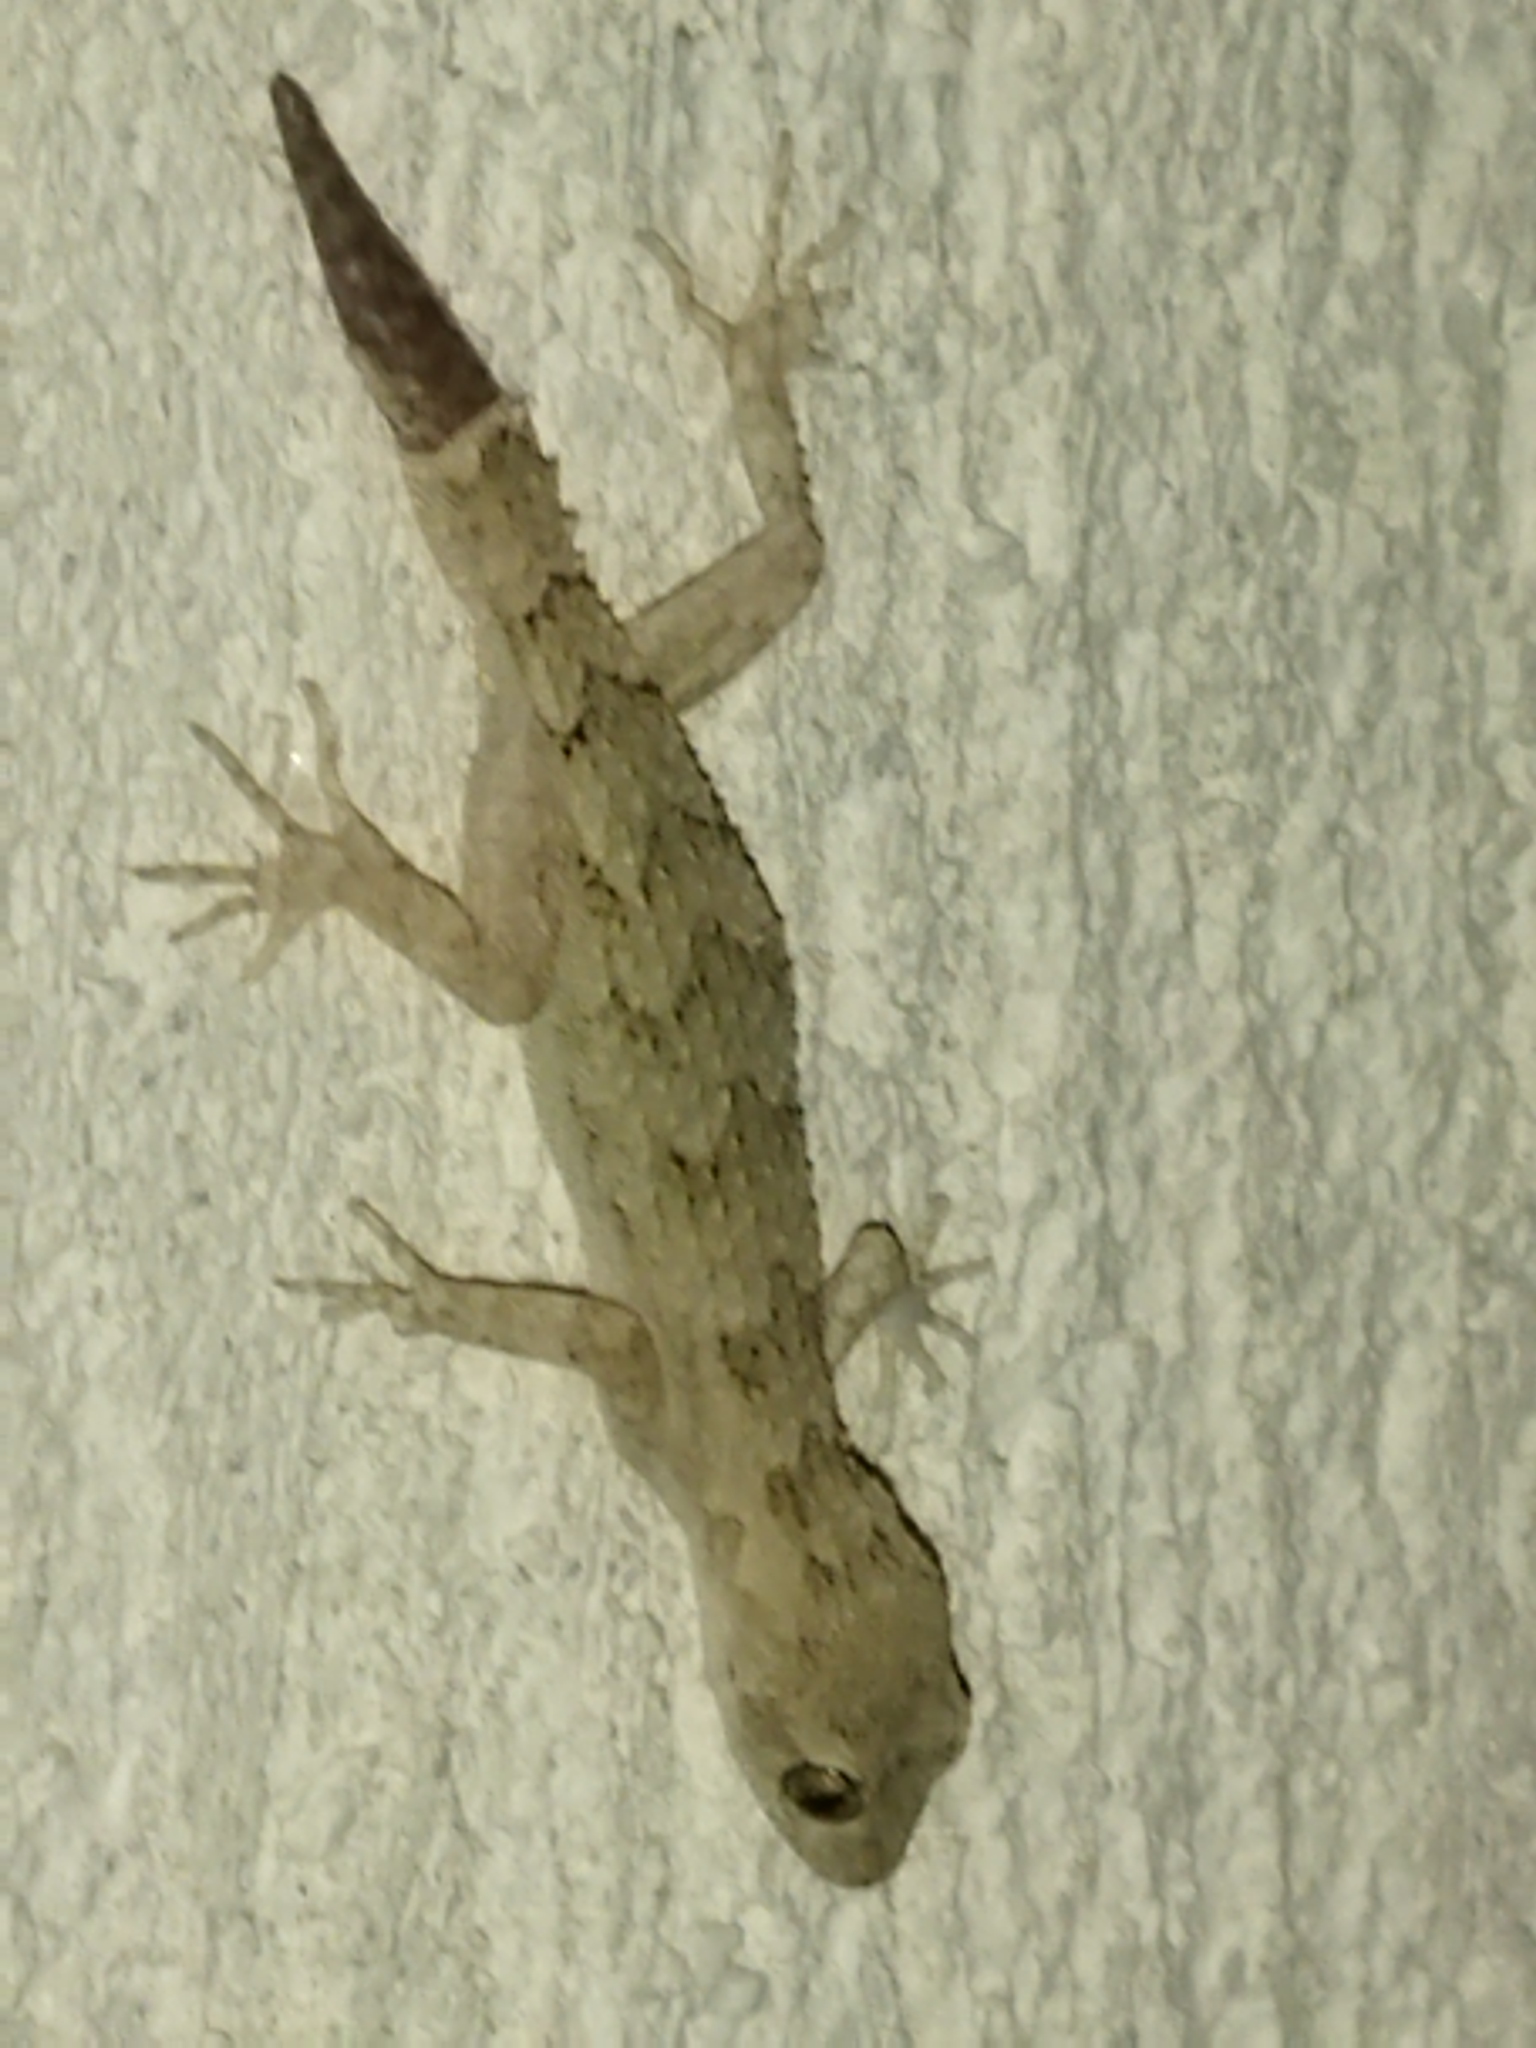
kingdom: Animalia
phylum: Chordata
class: Squamata
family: Gekkonidae
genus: Mediodactylus
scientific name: Mediodactylus kotschyi
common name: Kotschy's gecko
